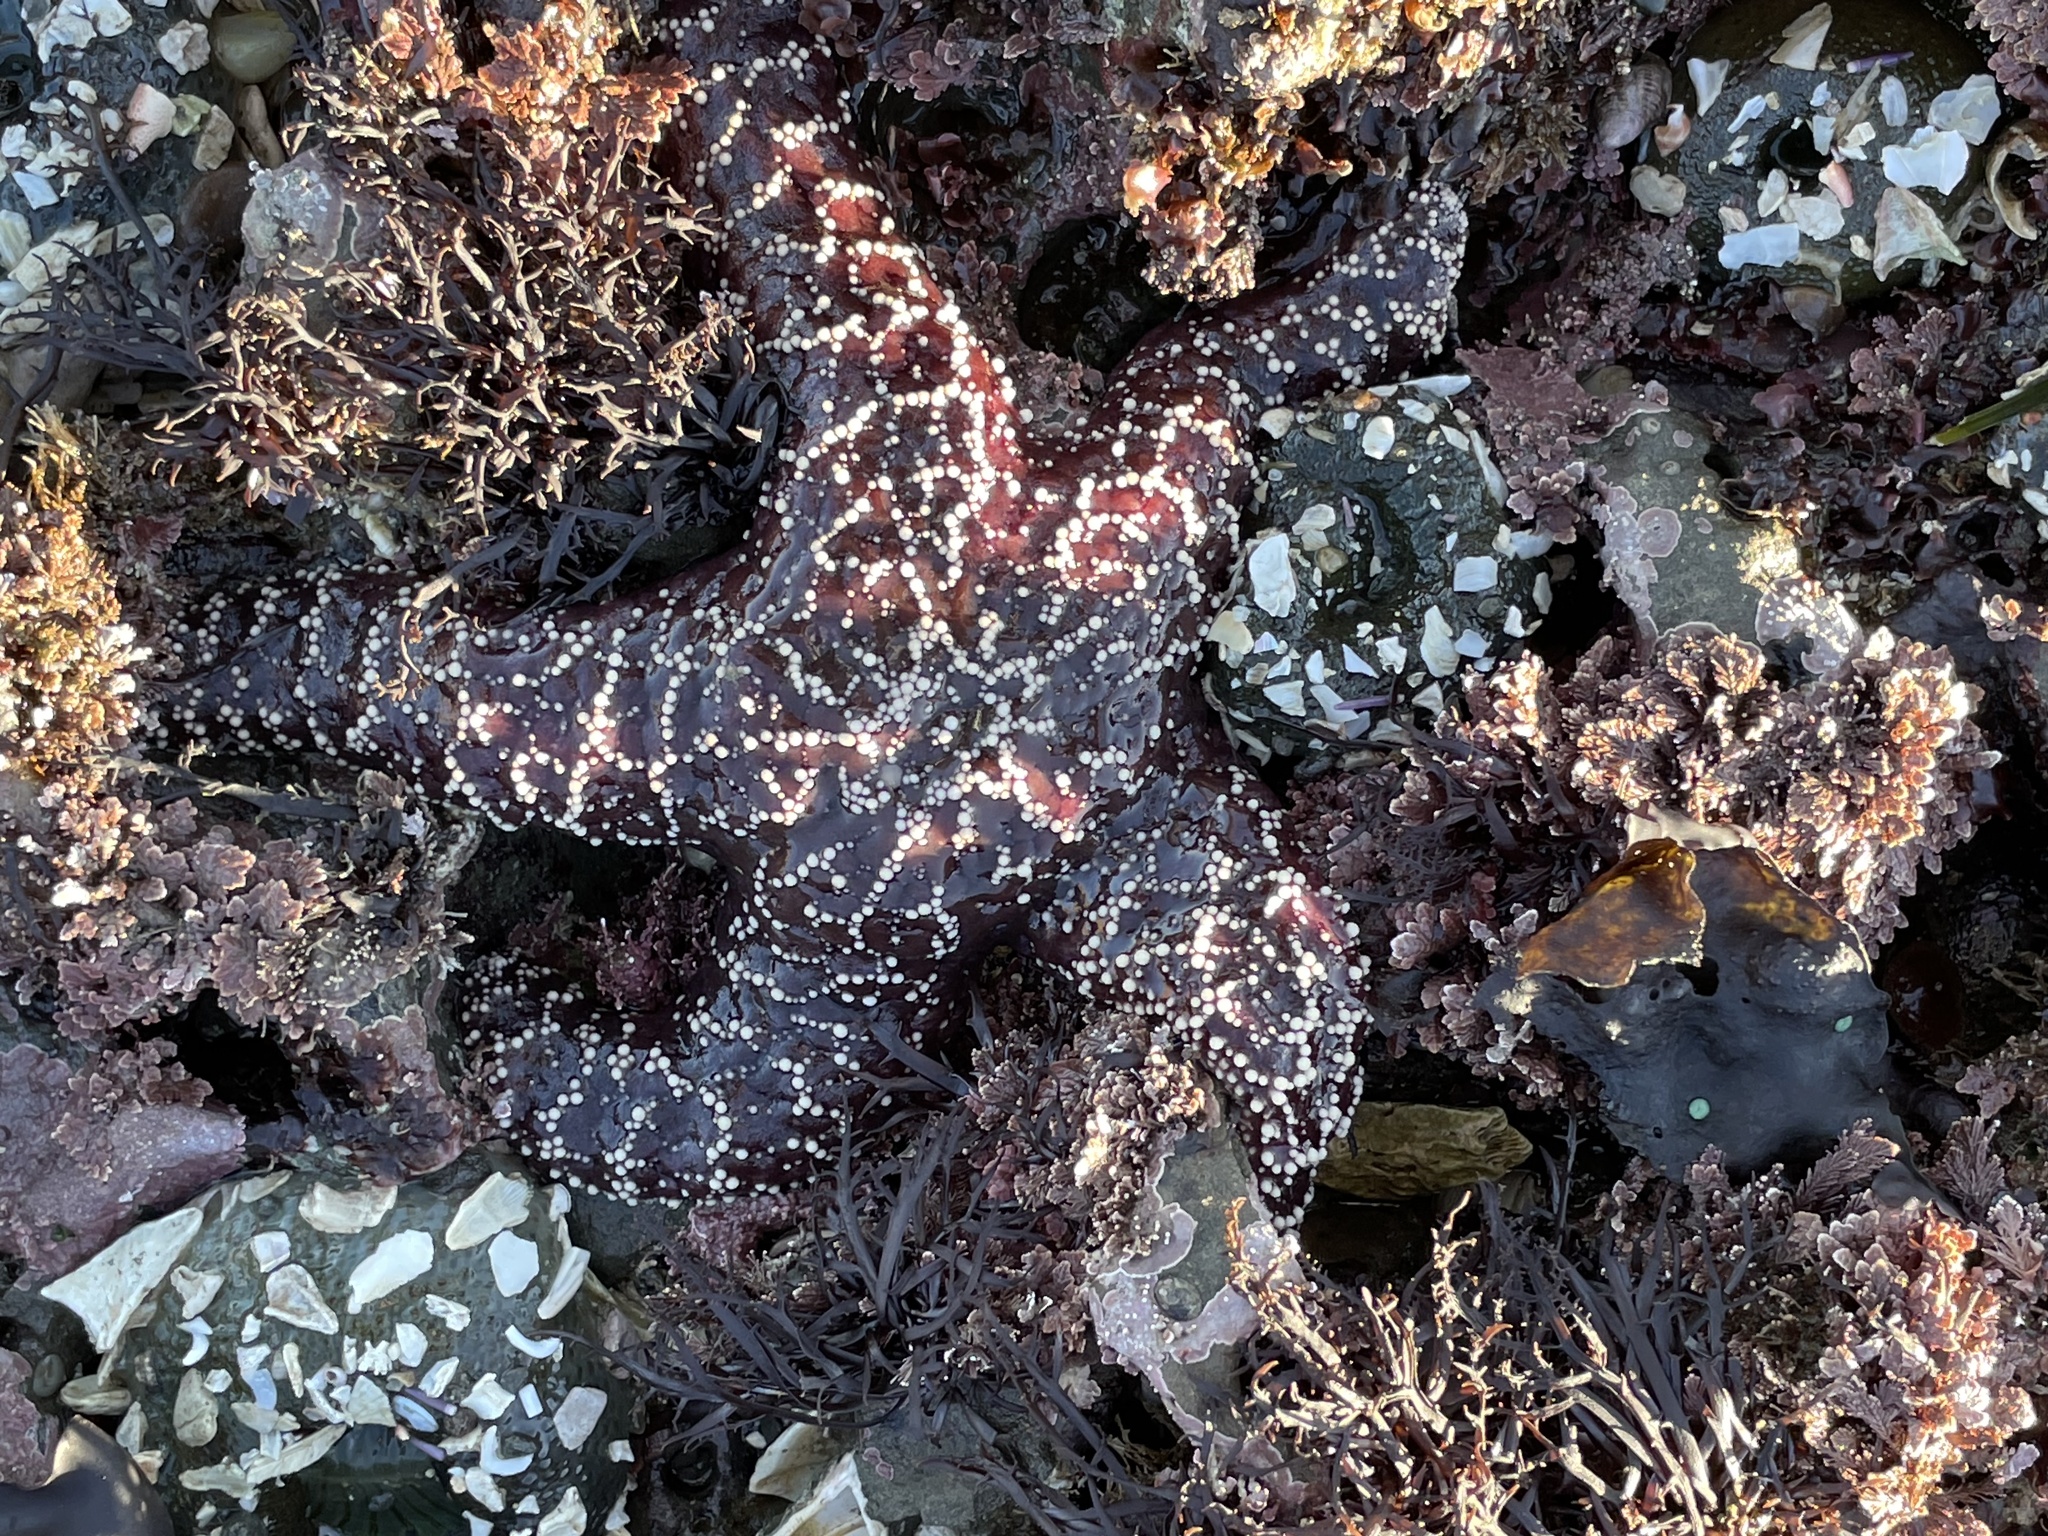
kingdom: Animalia
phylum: Echinodermata
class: Asteroidea
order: Forcipulatida
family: Asteriidae
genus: Pisaster
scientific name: Pisaster ochraceus
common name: Ochre stars
